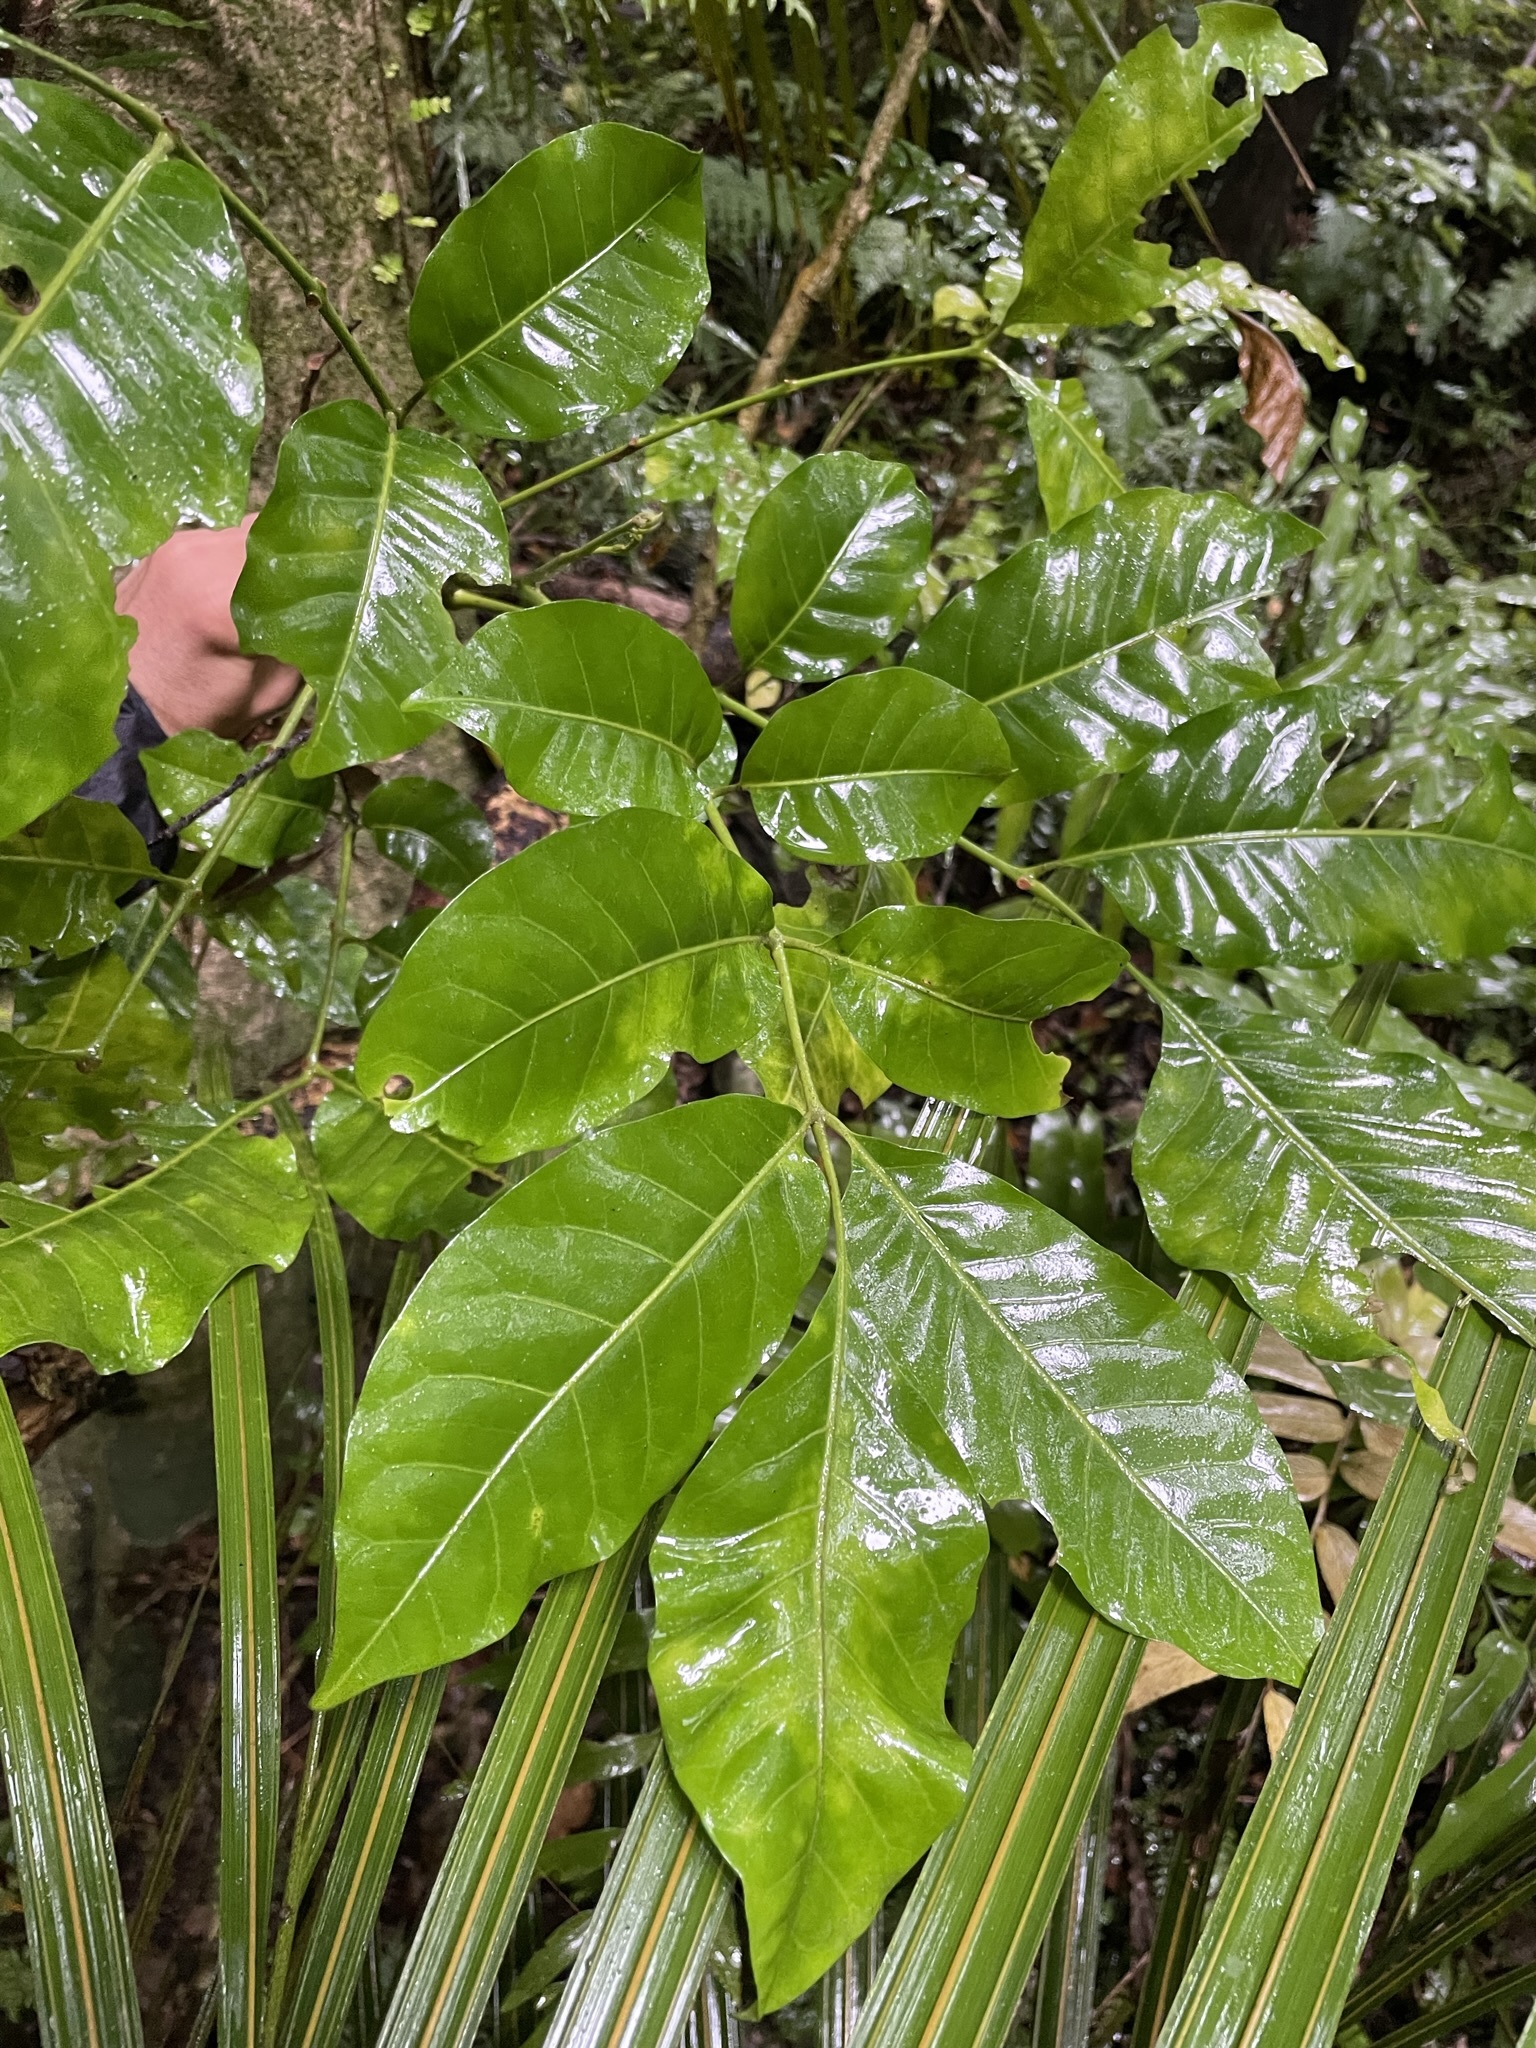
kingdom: Plantae
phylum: Tracheophyta
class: Magnoliopsida
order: Sapindales
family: Meliaceae
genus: Didymocheton
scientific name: Didymocheton spectabilis
